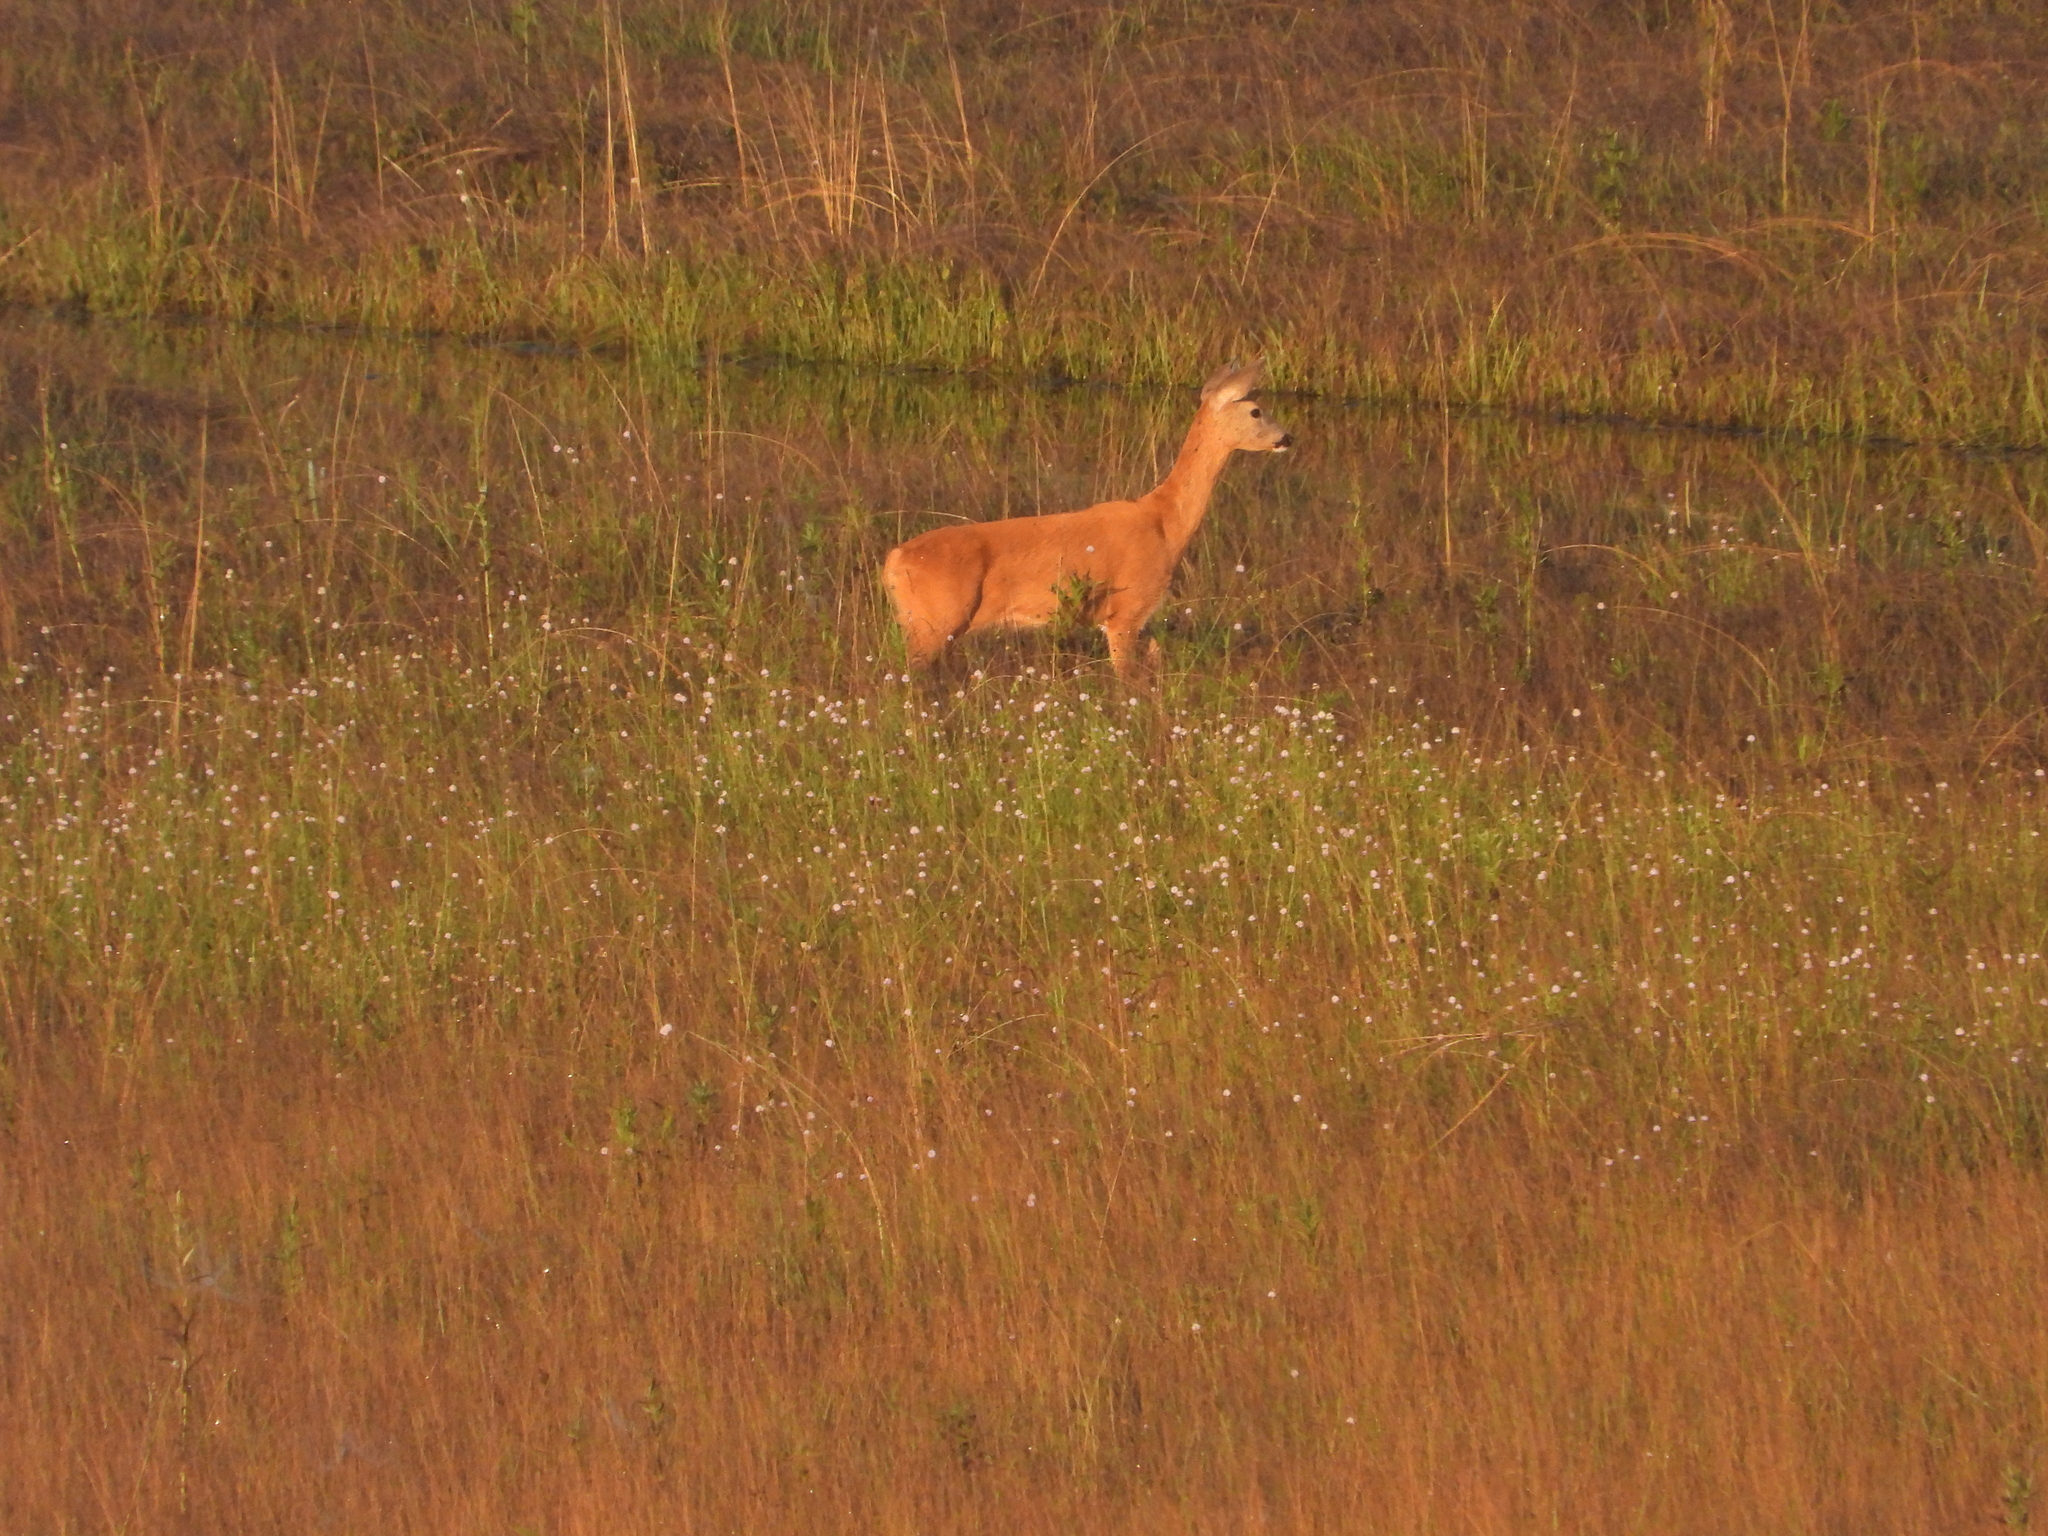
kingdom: Animalia
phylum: Chordata
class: Mammalia
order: Artiodactyla
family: Cervidae
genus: Capreolus
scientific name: Capreolus capreolus
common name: Western roe deer
